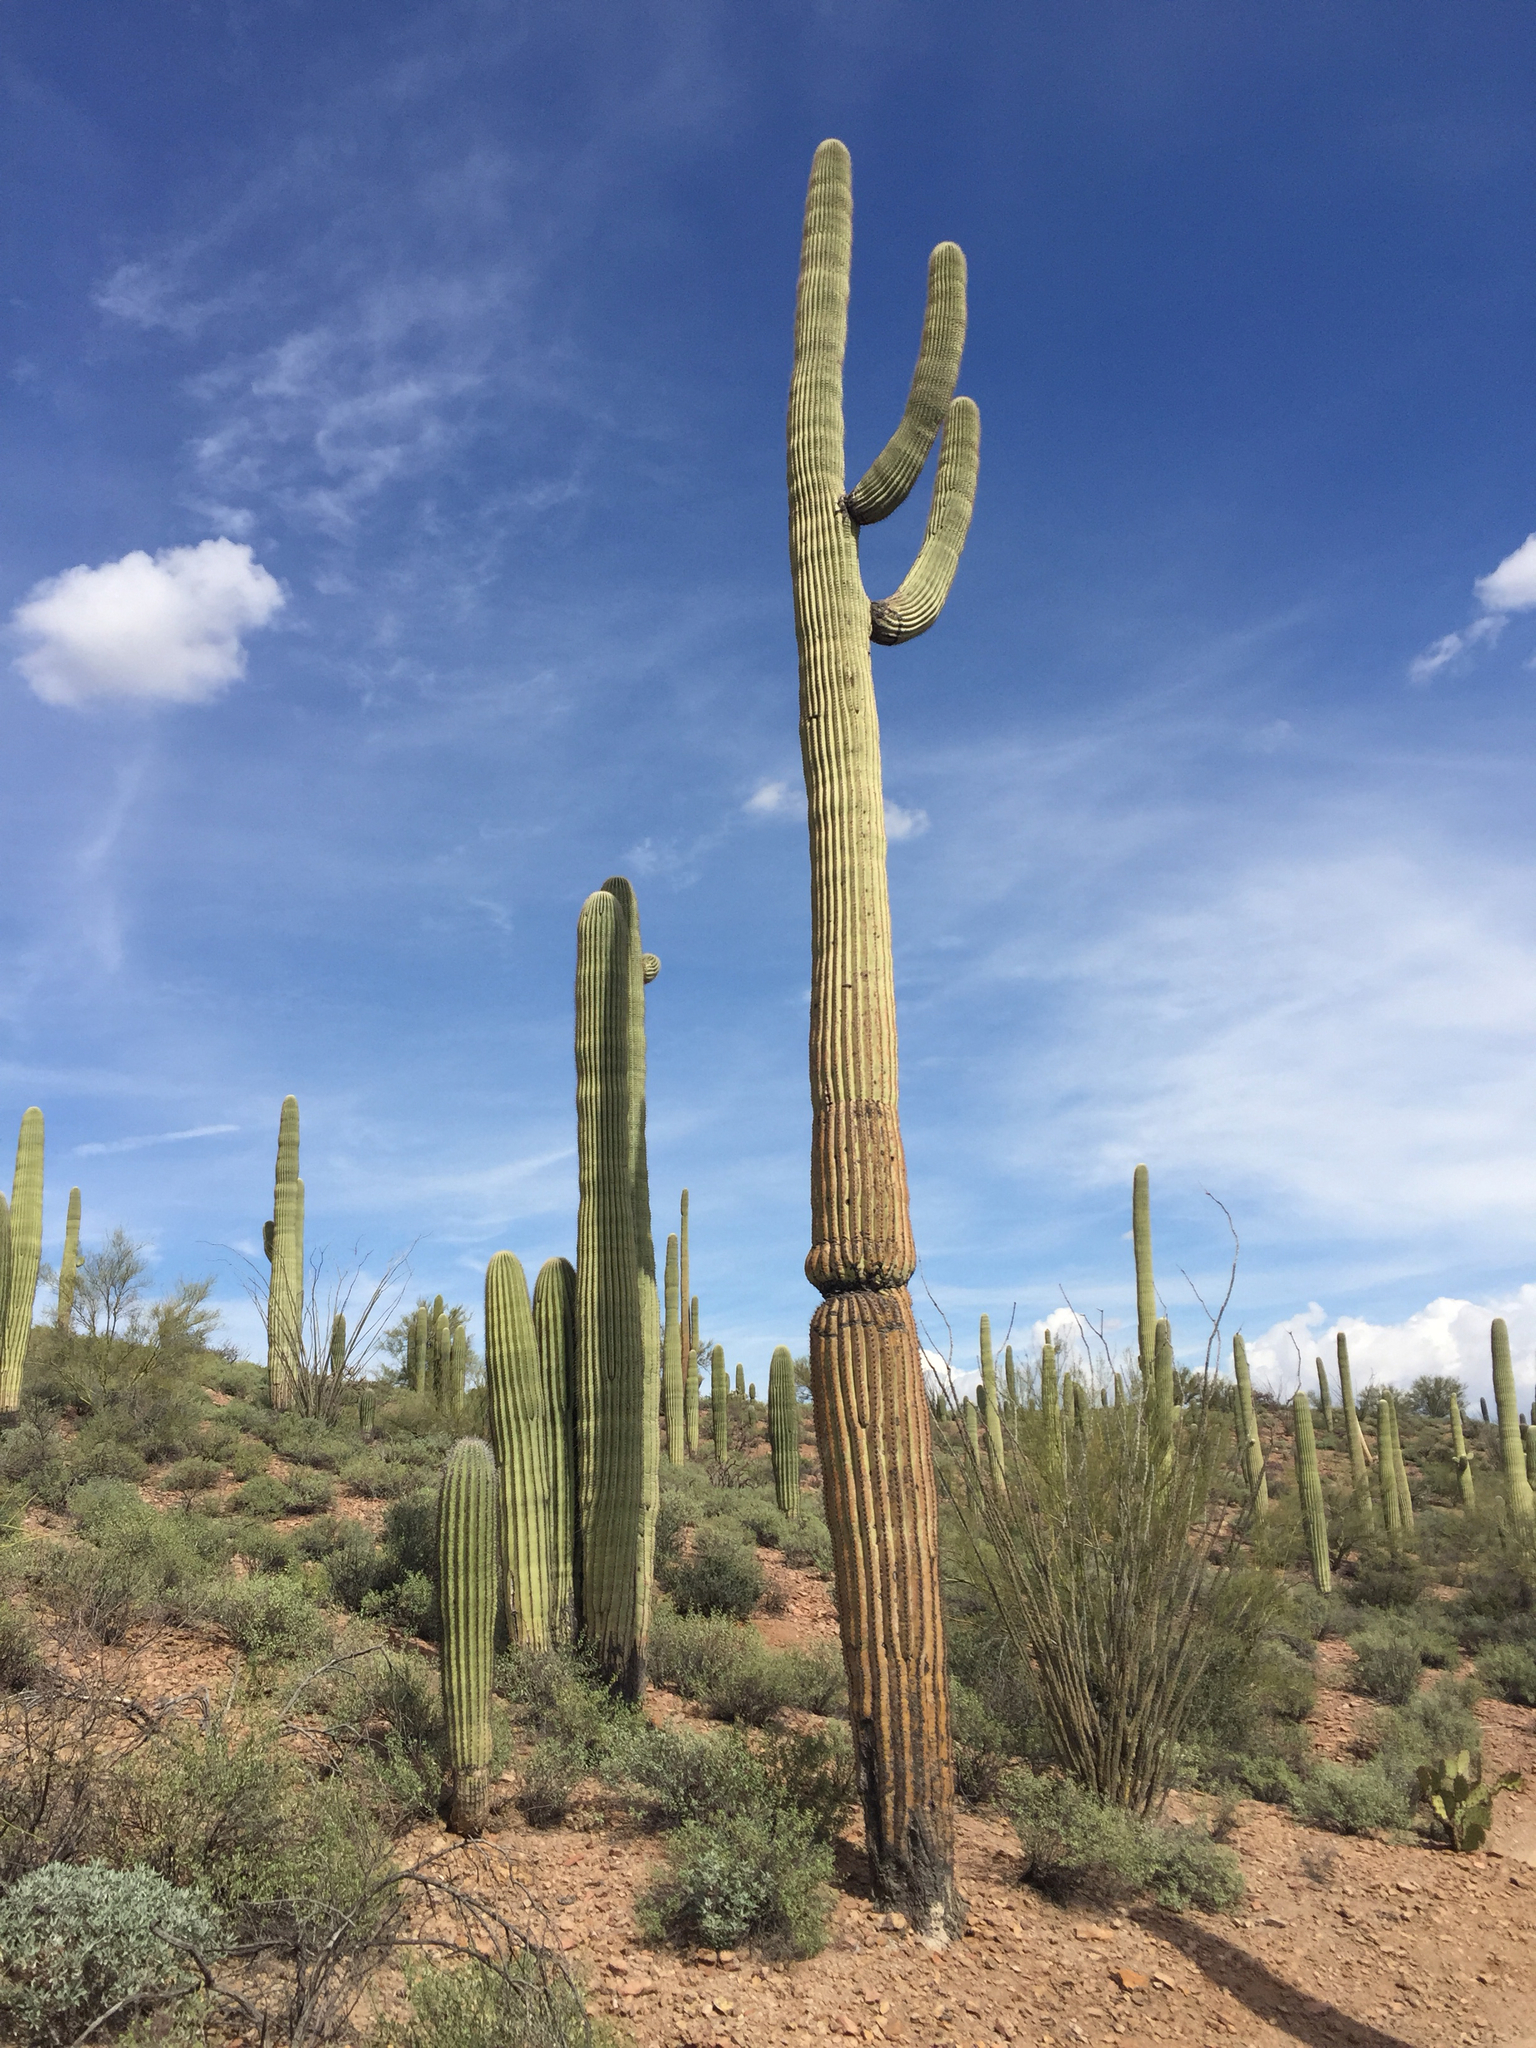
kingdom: Plantae
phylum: Tracheophyta
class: Magnoliopsida
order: Caryophyllales
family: Cactaceae
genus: Carnegiea
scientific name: Carnegiea gigantea
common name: Saguaro
